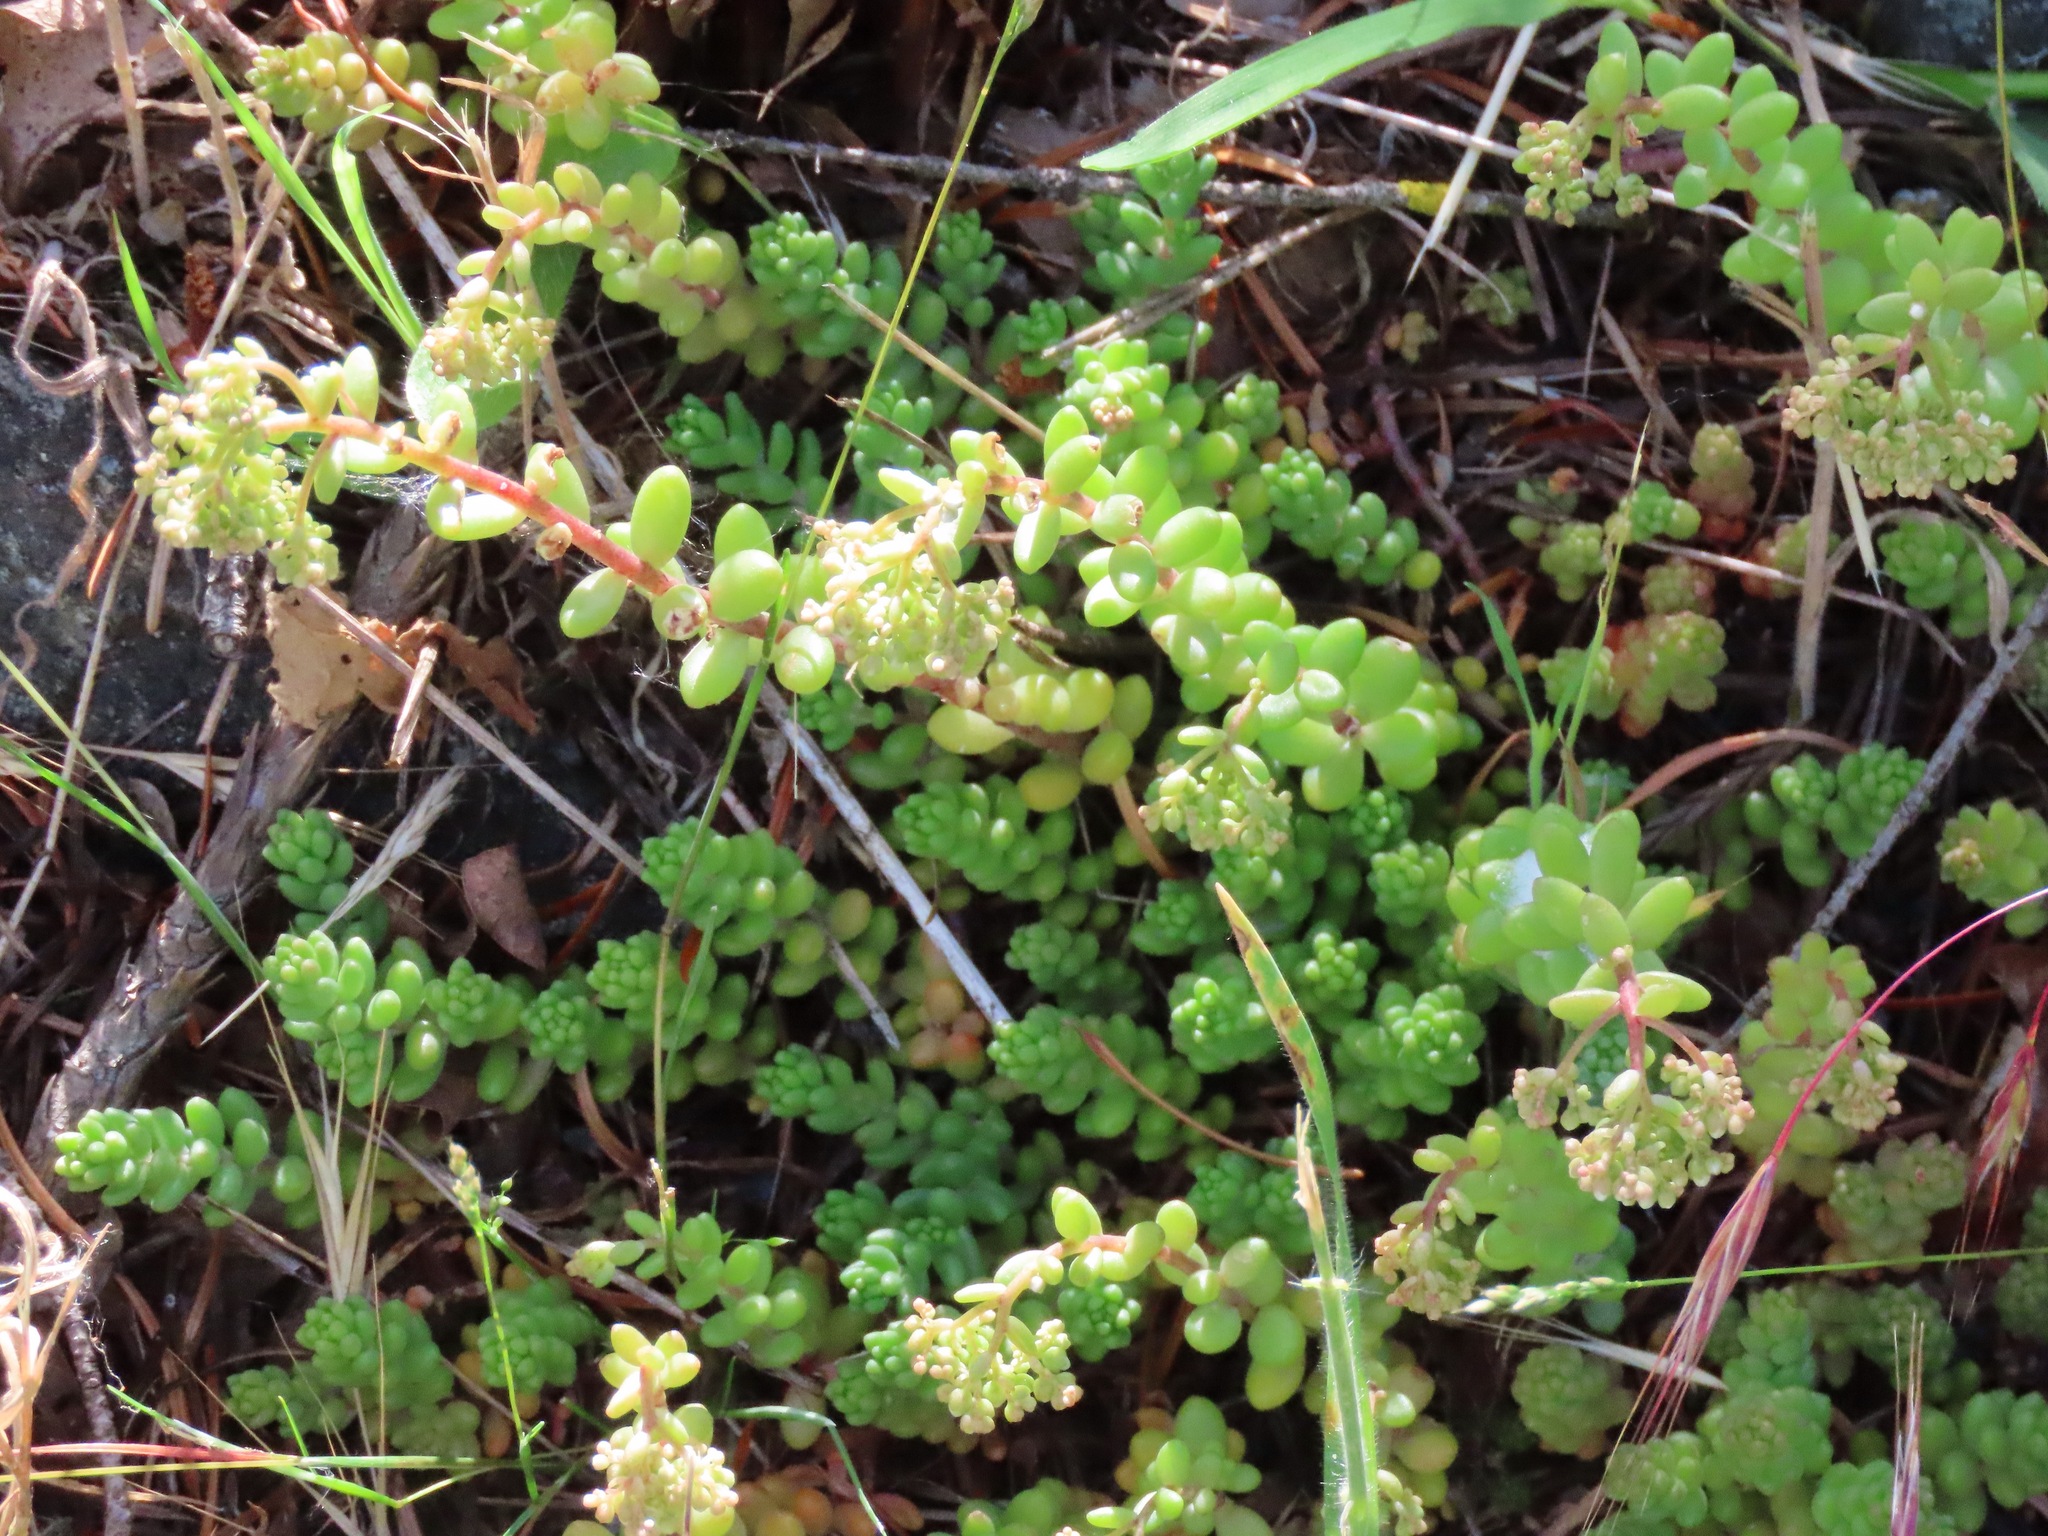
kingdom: Plantae
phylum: Tracheophyta
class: Magnoliopsida
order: Saxifragales
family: Crassulaceae
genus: Sedum
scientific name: Sedum album
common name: White stonecrop
